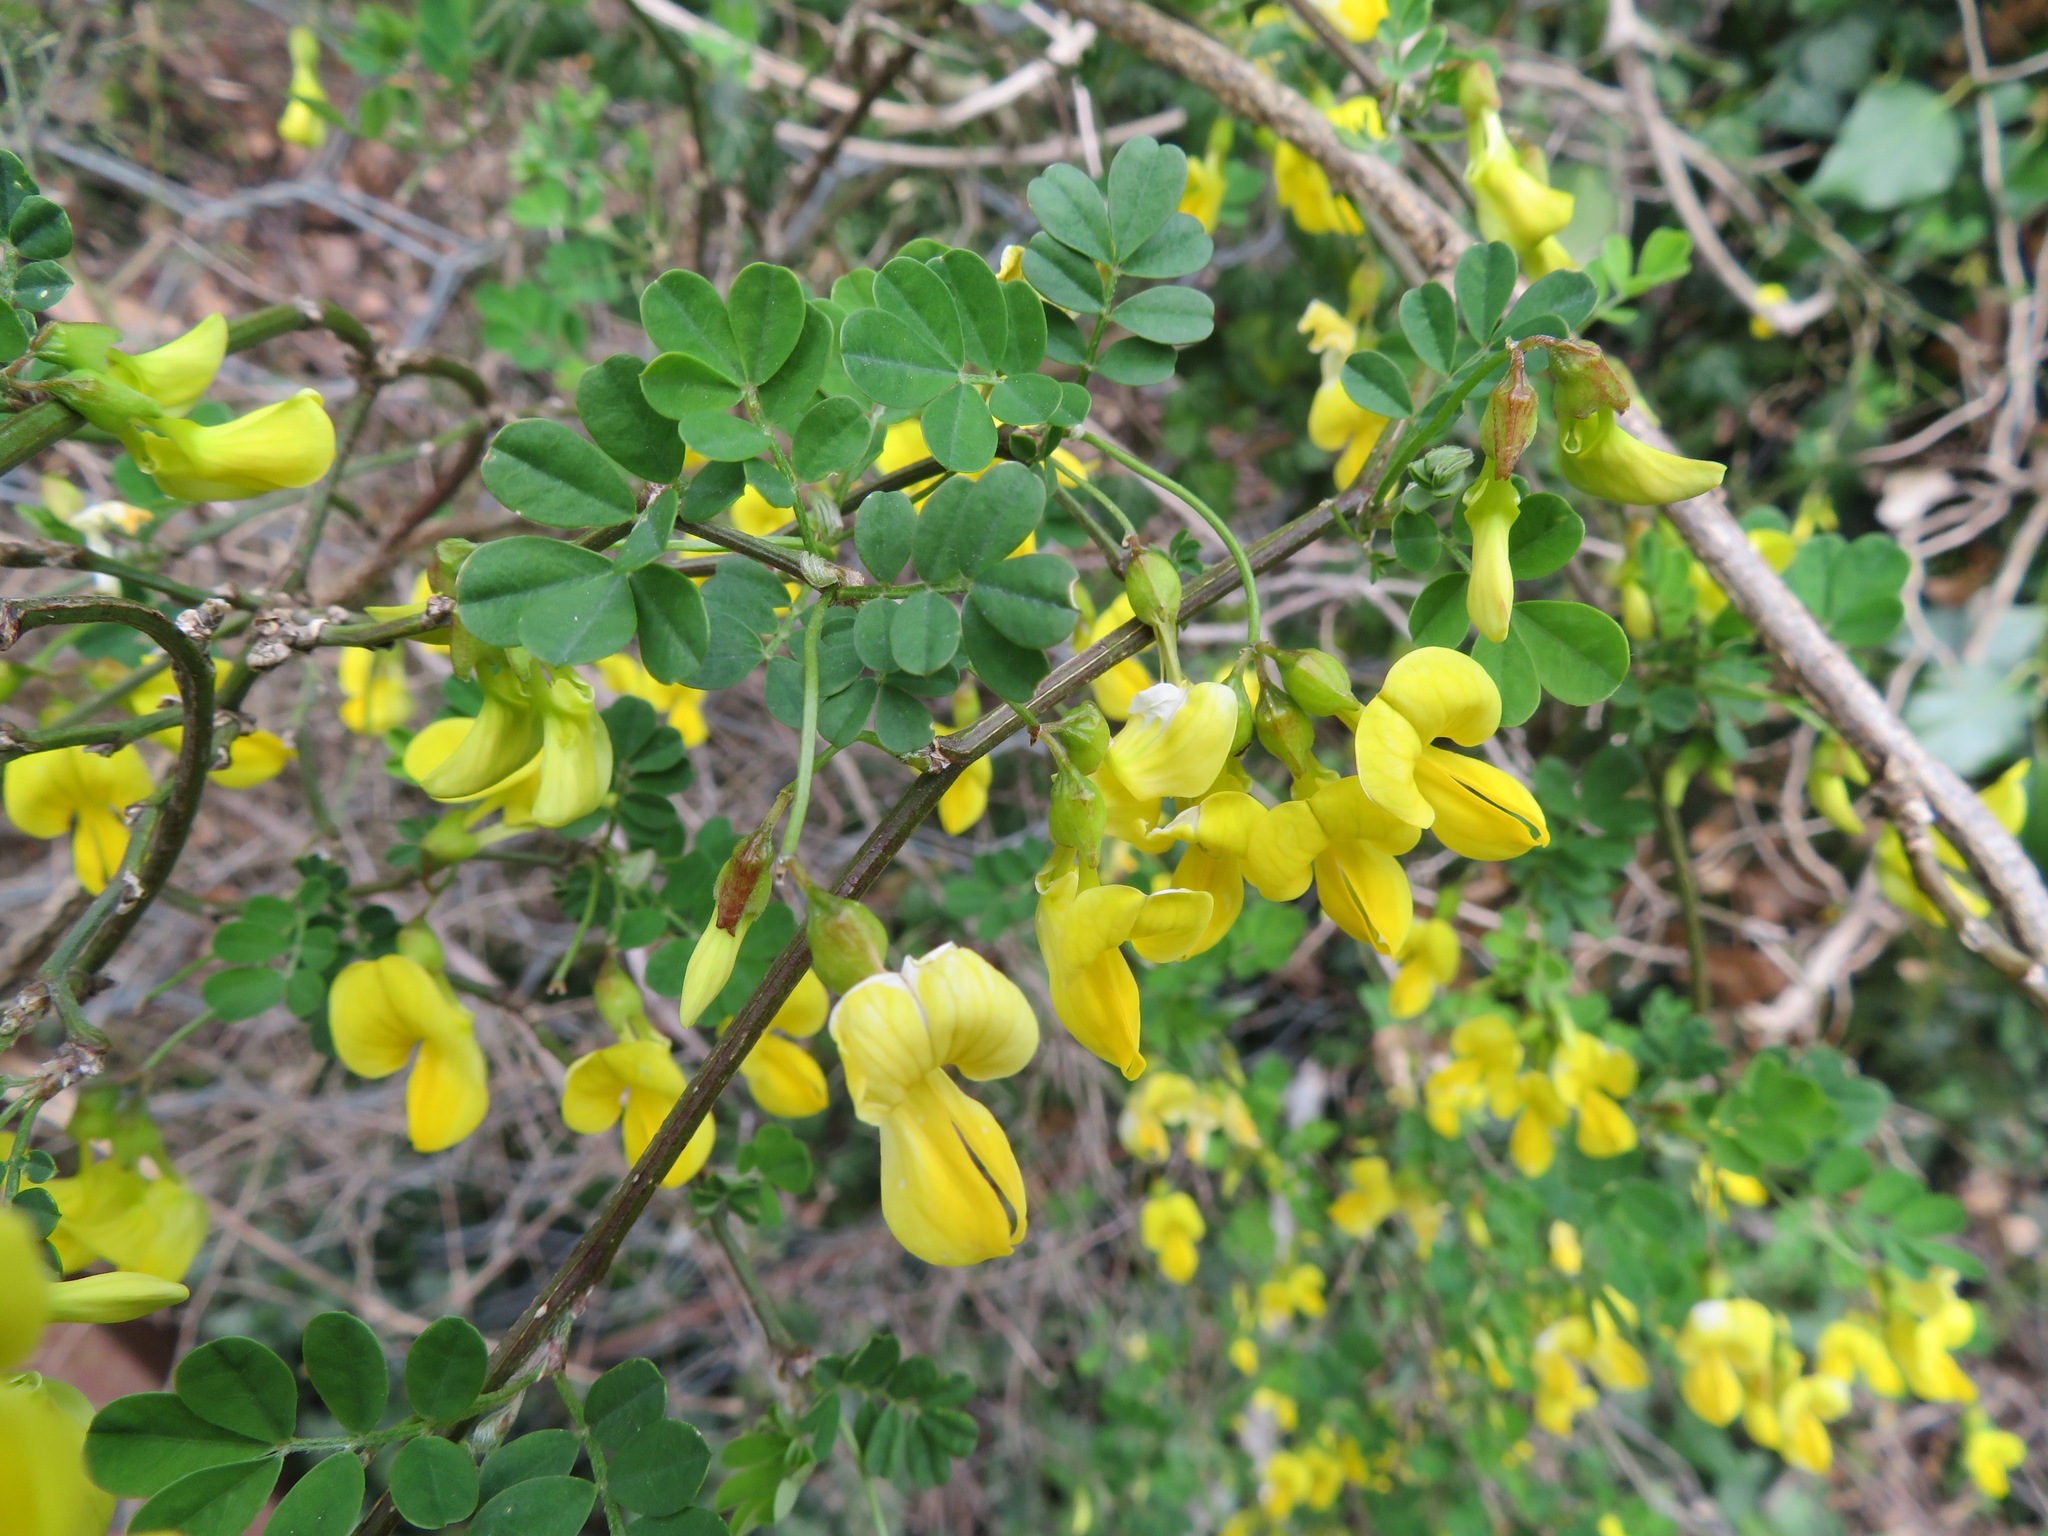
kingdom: Plantae
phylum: Tracheophyta
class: Magnoliopsida
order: Fabales
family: Fabaceae
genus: Hippocrepis
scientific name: Hippocrepis emerus
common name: Scorpion senna
